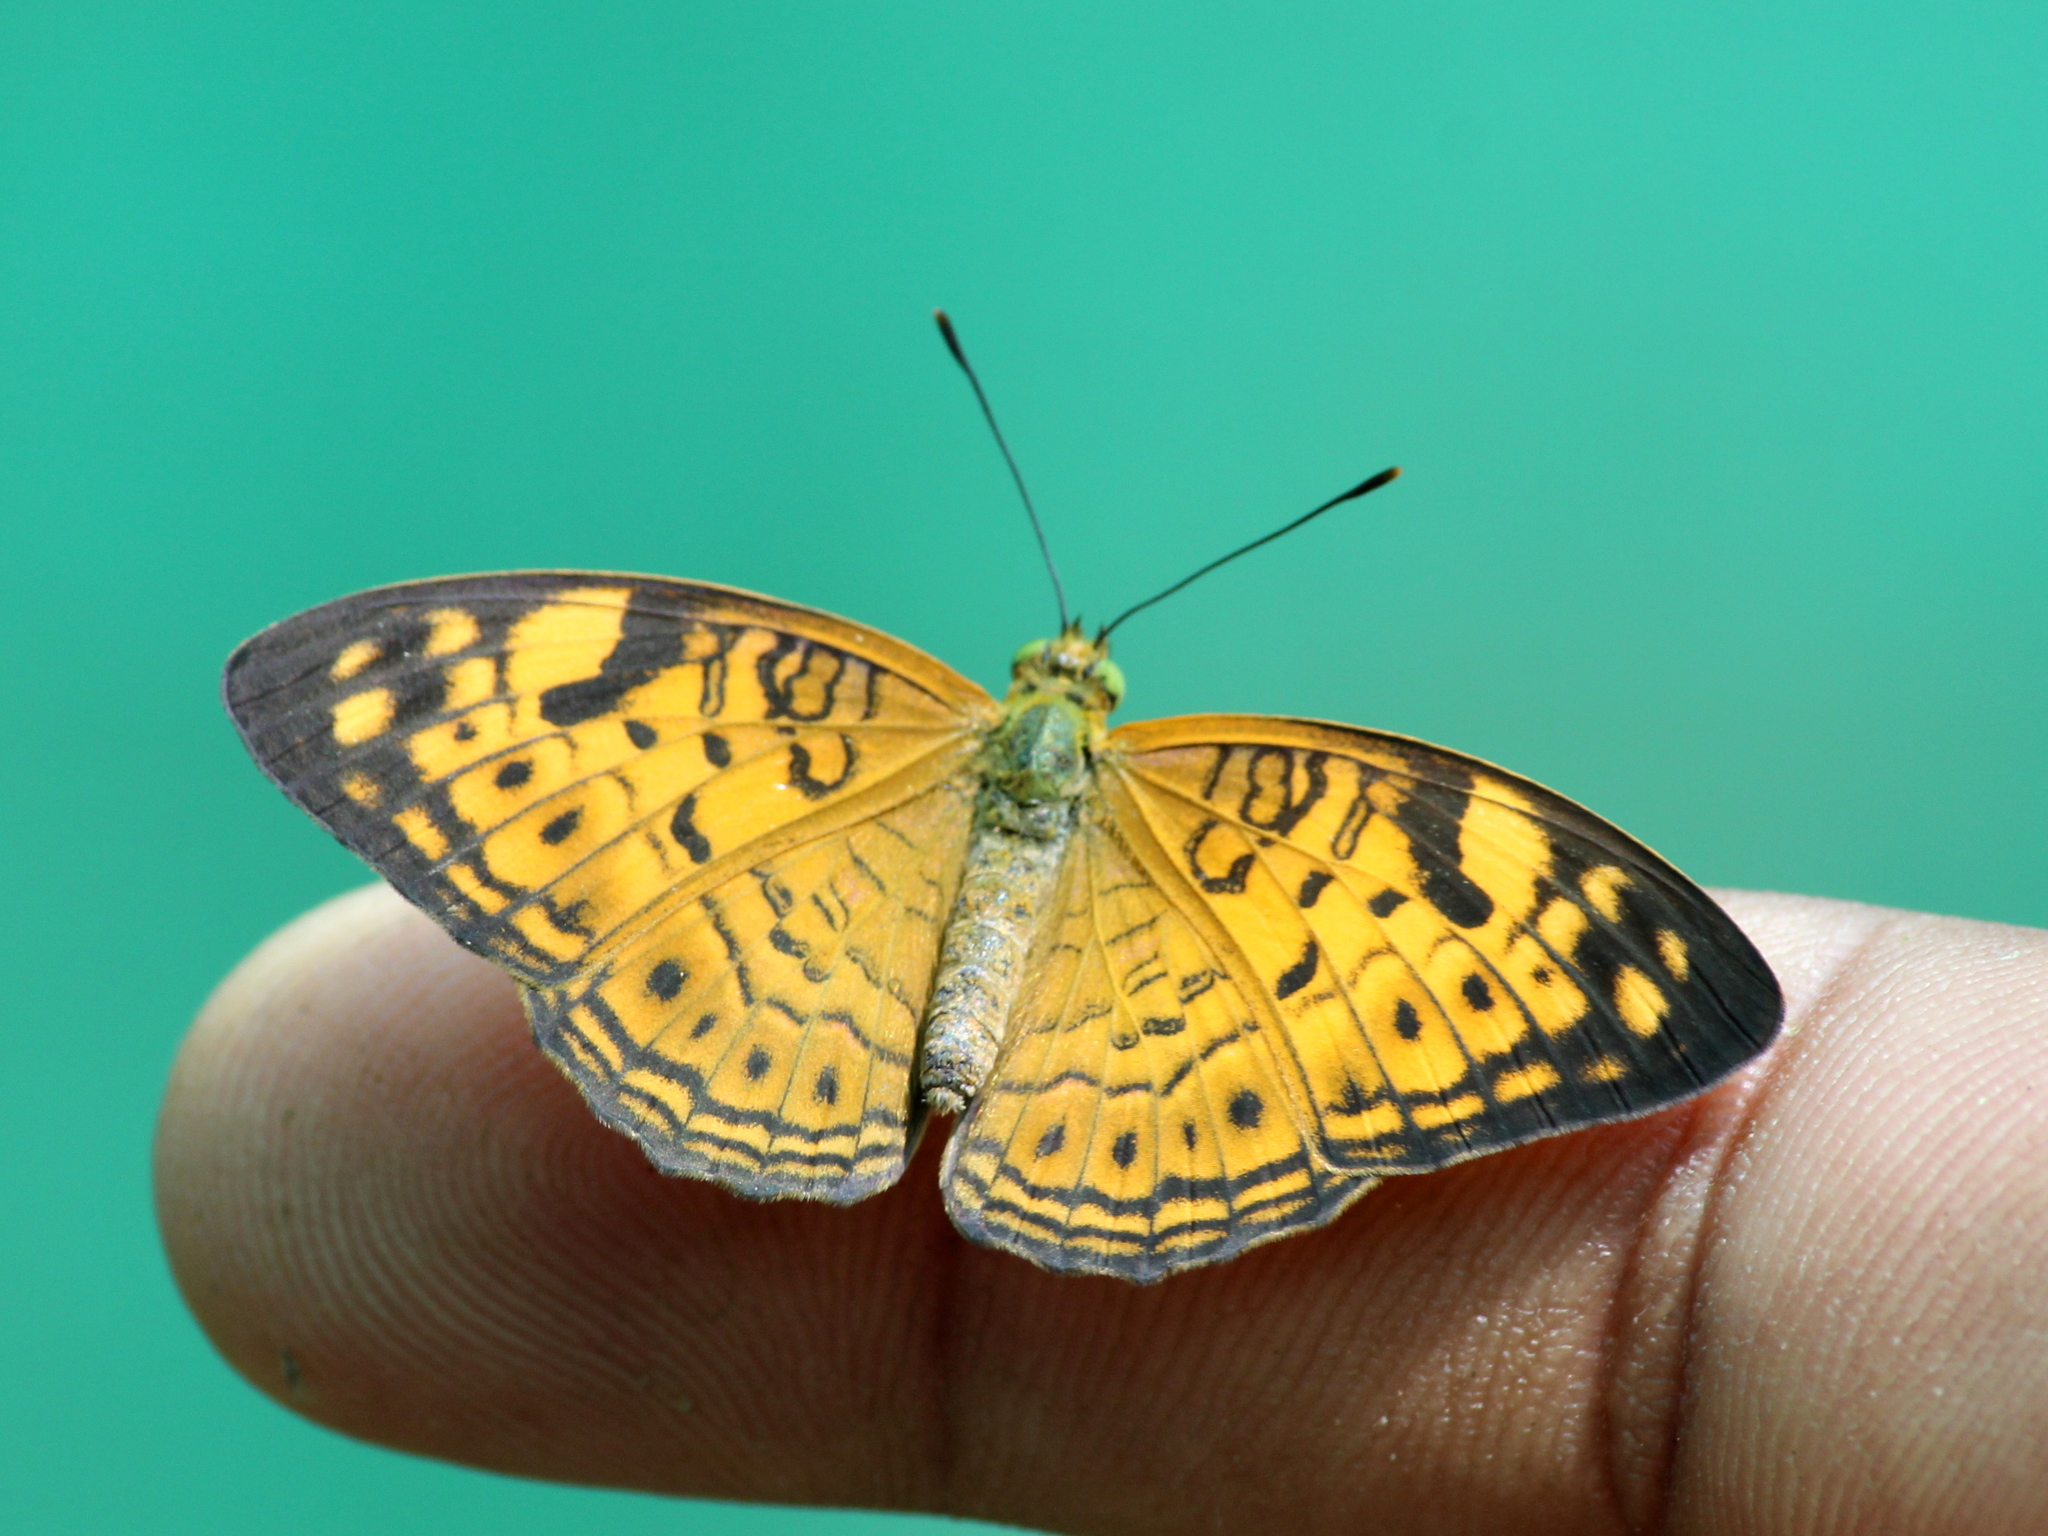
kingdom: Animalia
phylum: Arthropoda
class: Insecta
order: Lepidoptera
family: Nymphalidae
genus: Phalanta
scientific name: Phalanta alcippe
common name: Small leopard
